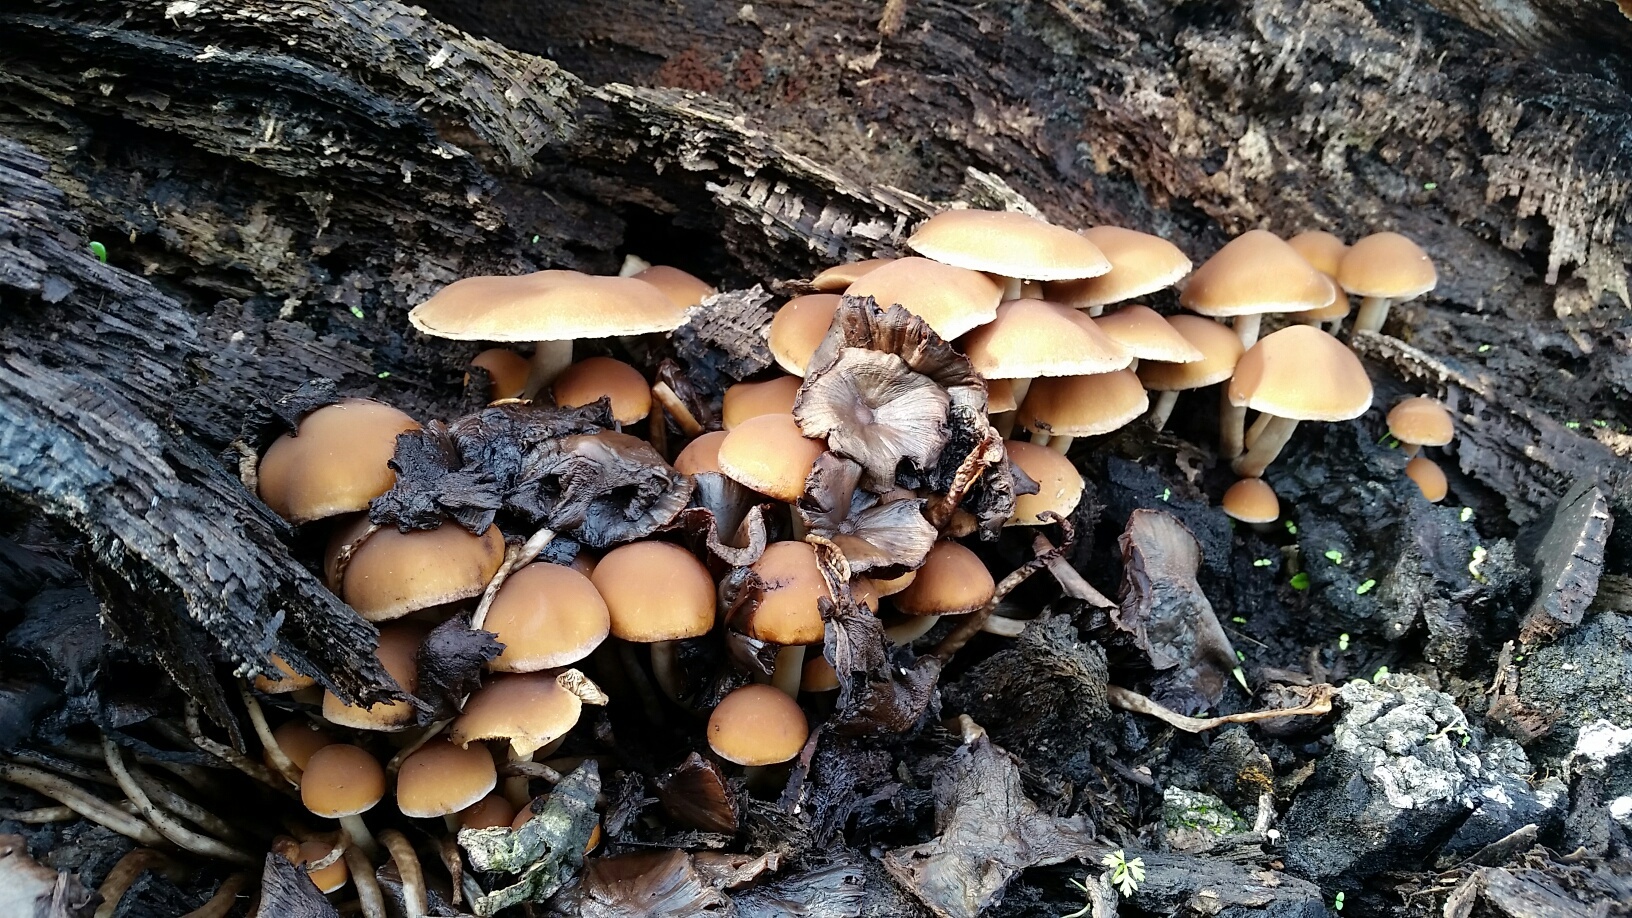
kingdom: Fungi
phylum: Basidiomycota
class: Agaricomycetes
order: Agaricales
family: Psathyrellaceae
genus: Psathyrella
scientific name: Psathyrella piluliformis
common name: Common stump brittlestem
